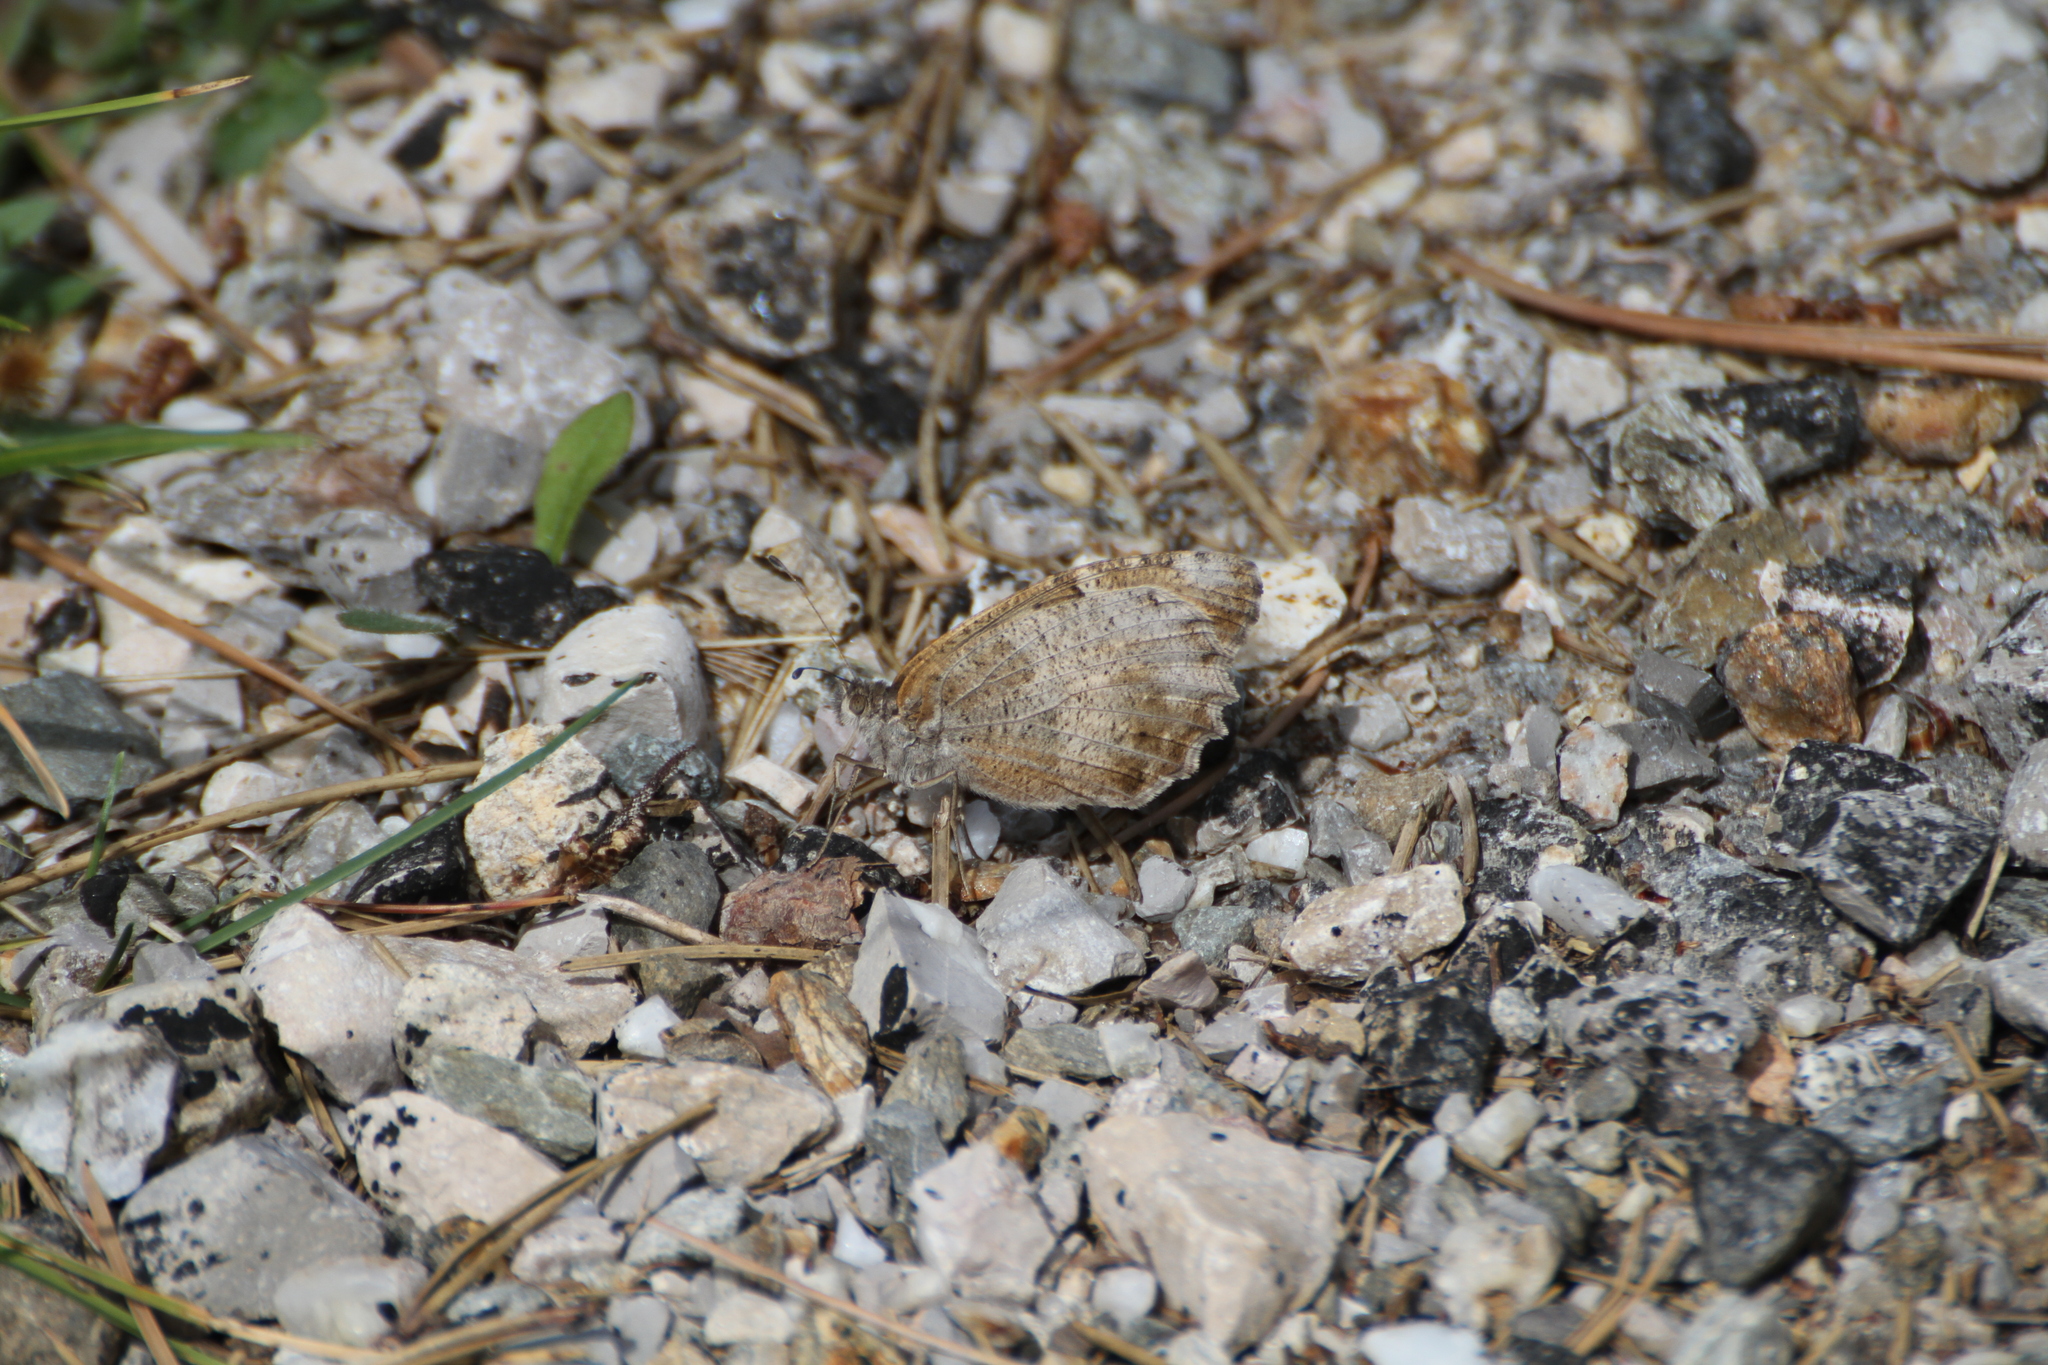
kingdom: Animalia
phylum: Arthropoda
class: Insecta
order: Lepidoptera
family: Nymphalidae
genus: Satyrus
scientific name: Satyrus briseis
